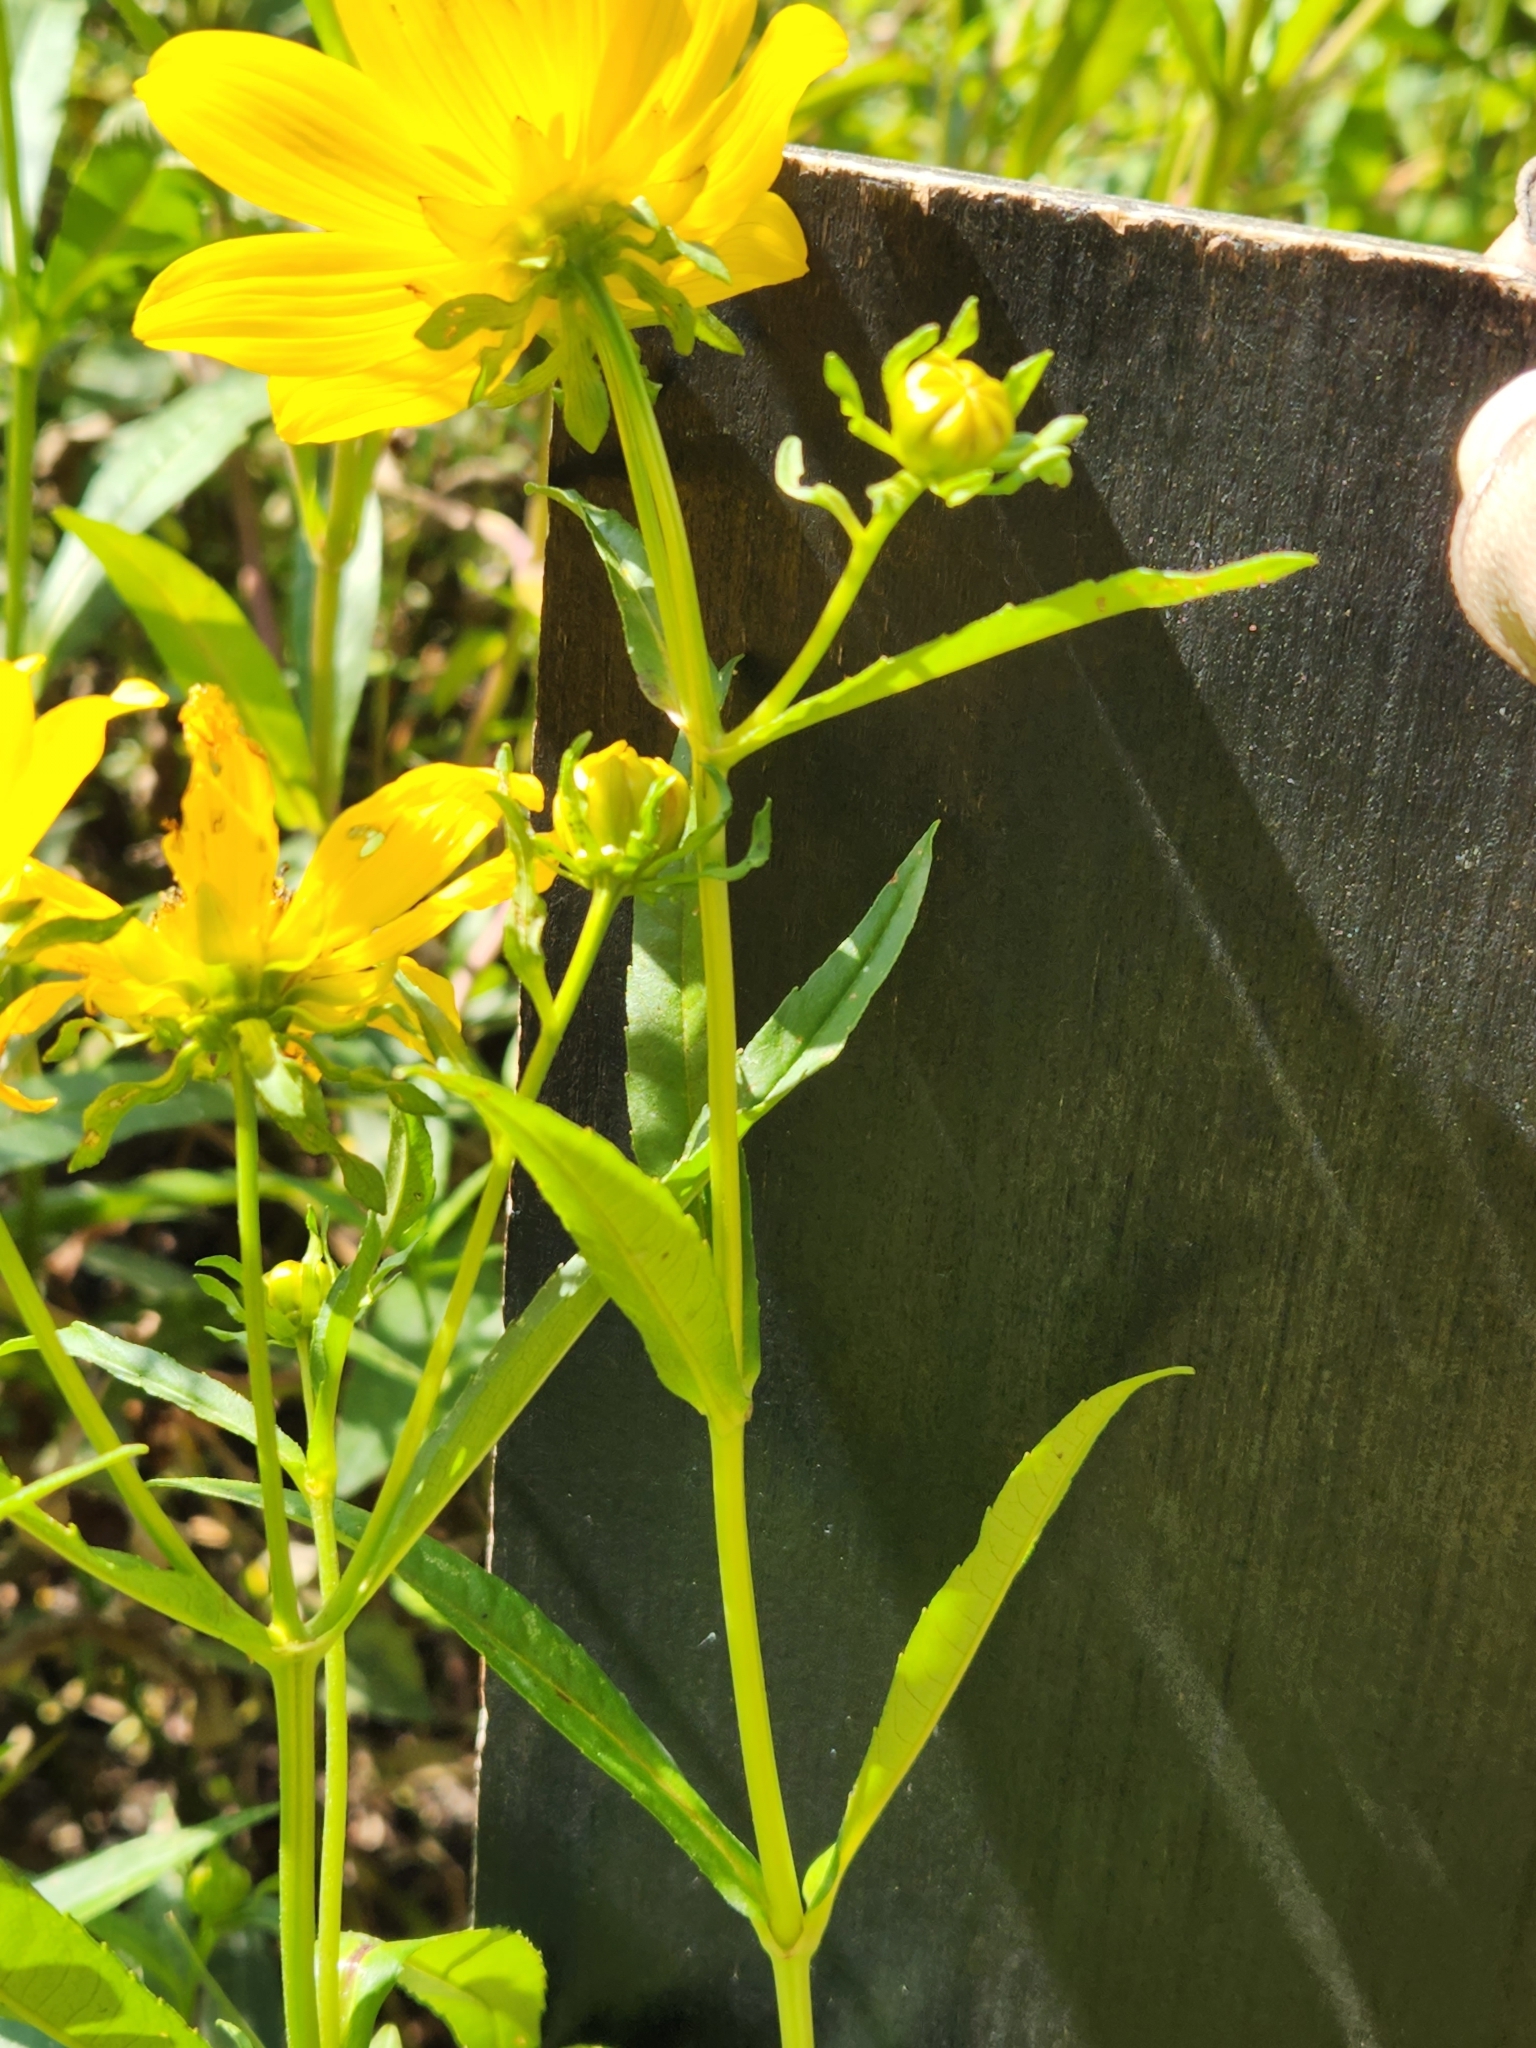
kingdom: Plantae
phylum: Tracheophyta
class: Magnoliopsida
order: Asterales
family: Asteraceae
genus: Bidens
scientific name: Bidens laevis
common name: Larger bur-marigold
